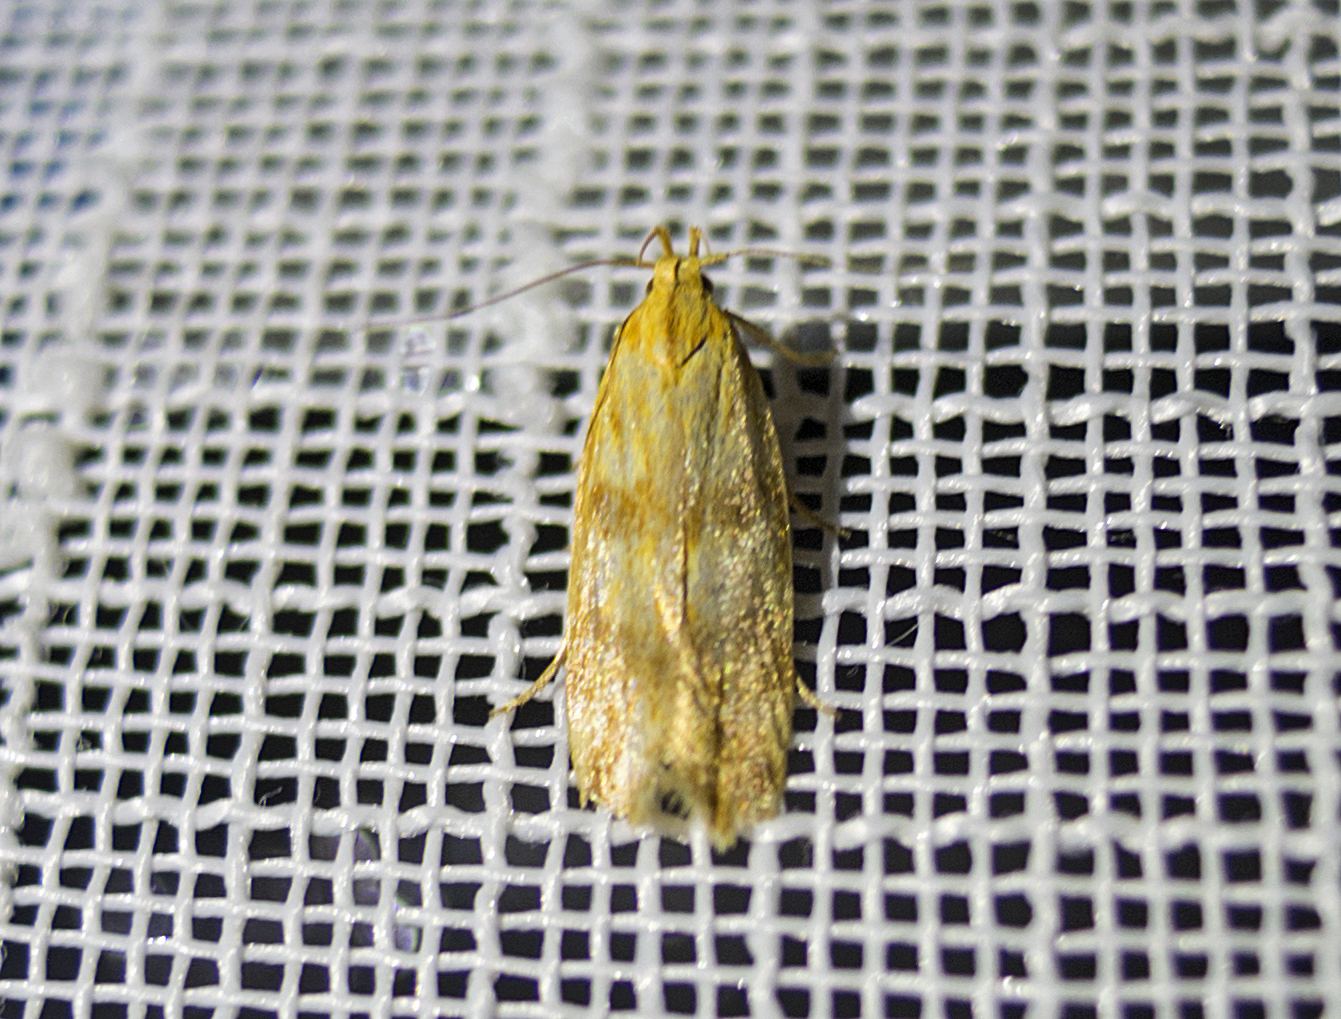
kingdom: Animalia
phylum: Arthropoda
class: Insecta
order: Lepidoptera
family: Gelechiidae
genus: Mirificarma
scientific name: Mirificarma eburnella
